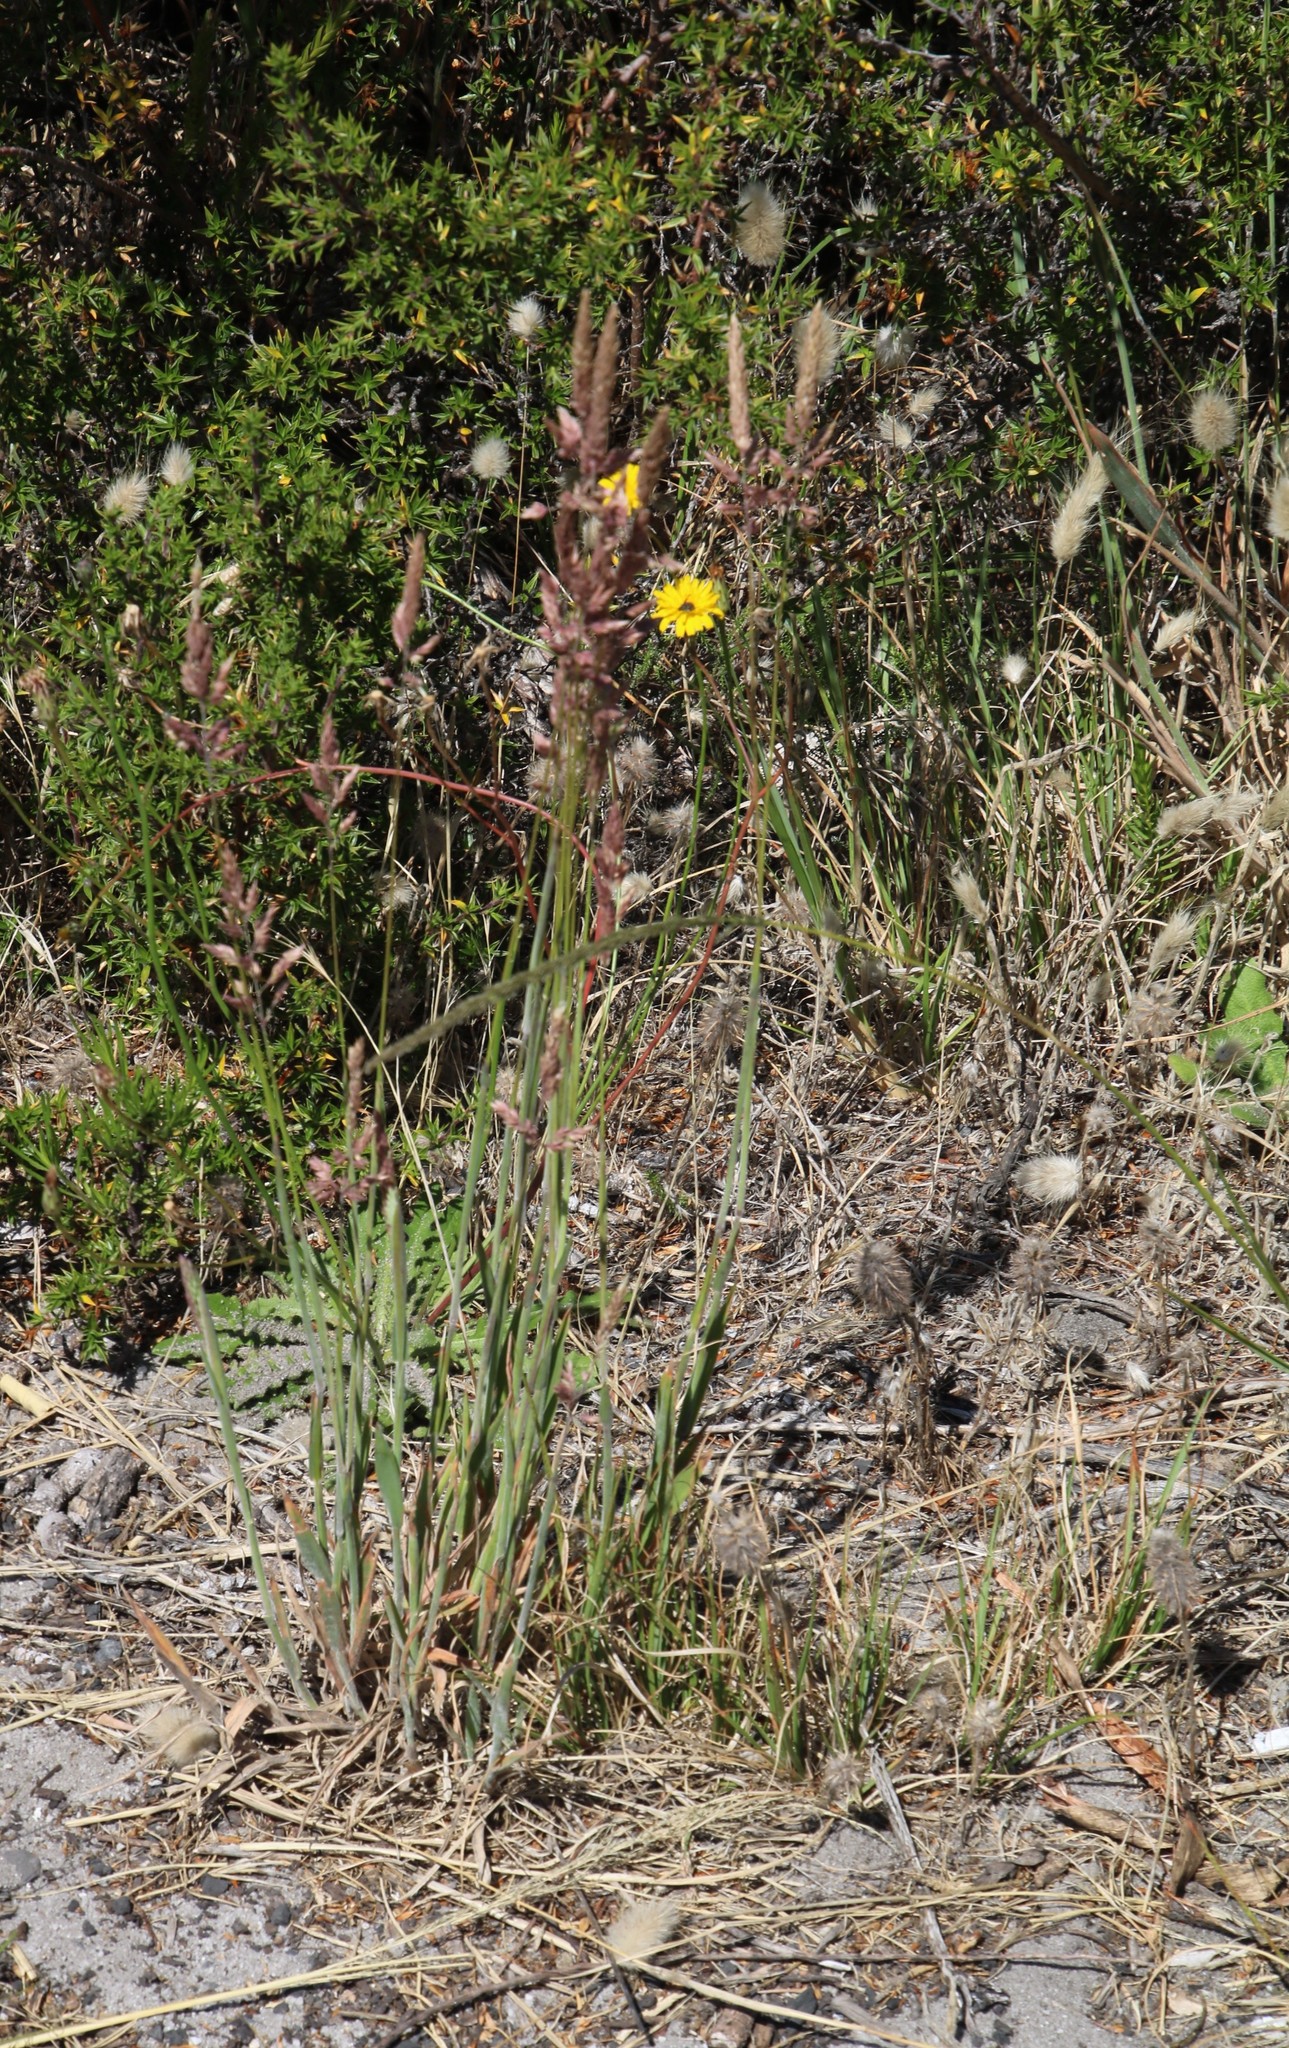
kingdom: Plantae
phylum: Tracheophyta
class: Magnoliopsida
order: Asterales
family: Asteraceae
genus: Hypochaeris
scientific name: Hypochaeris radicata
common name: Flatweed
